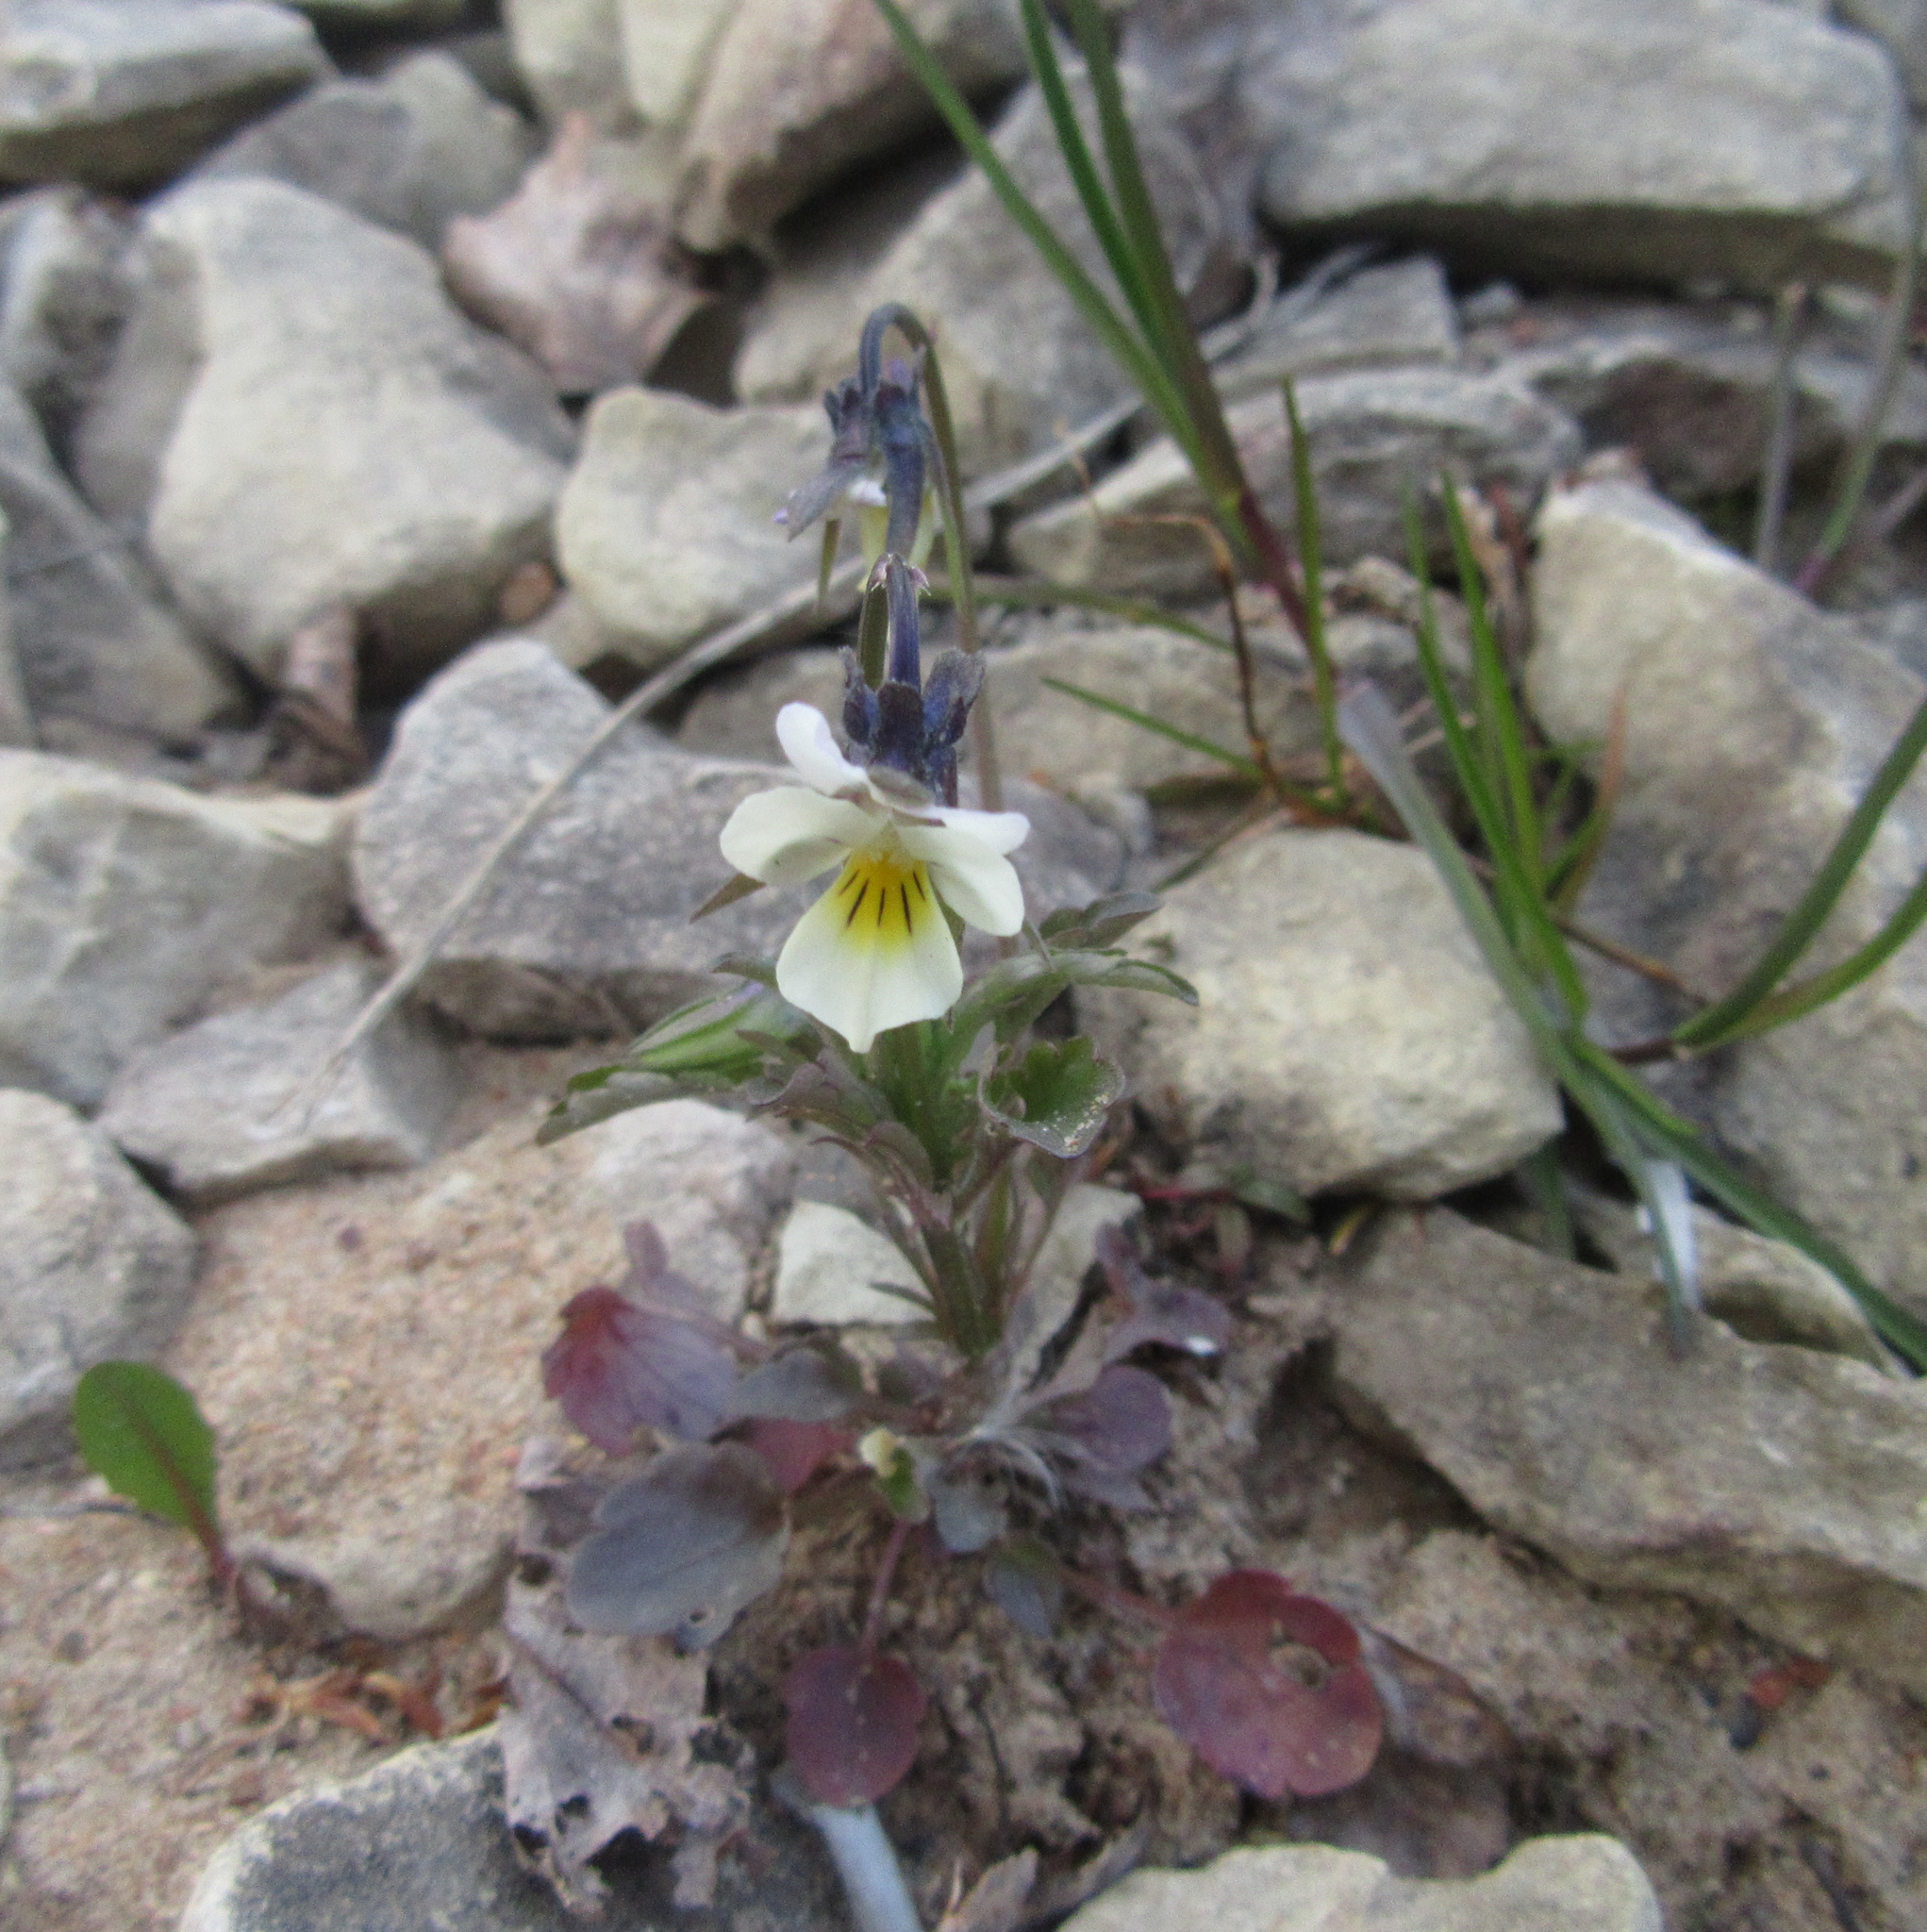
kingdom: Plantae
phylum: Tracheophyta
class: Magnoliopsida
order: Malpighiales
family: Violaceae
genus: Viola
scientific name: Viola arvensis
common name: Field pansy
